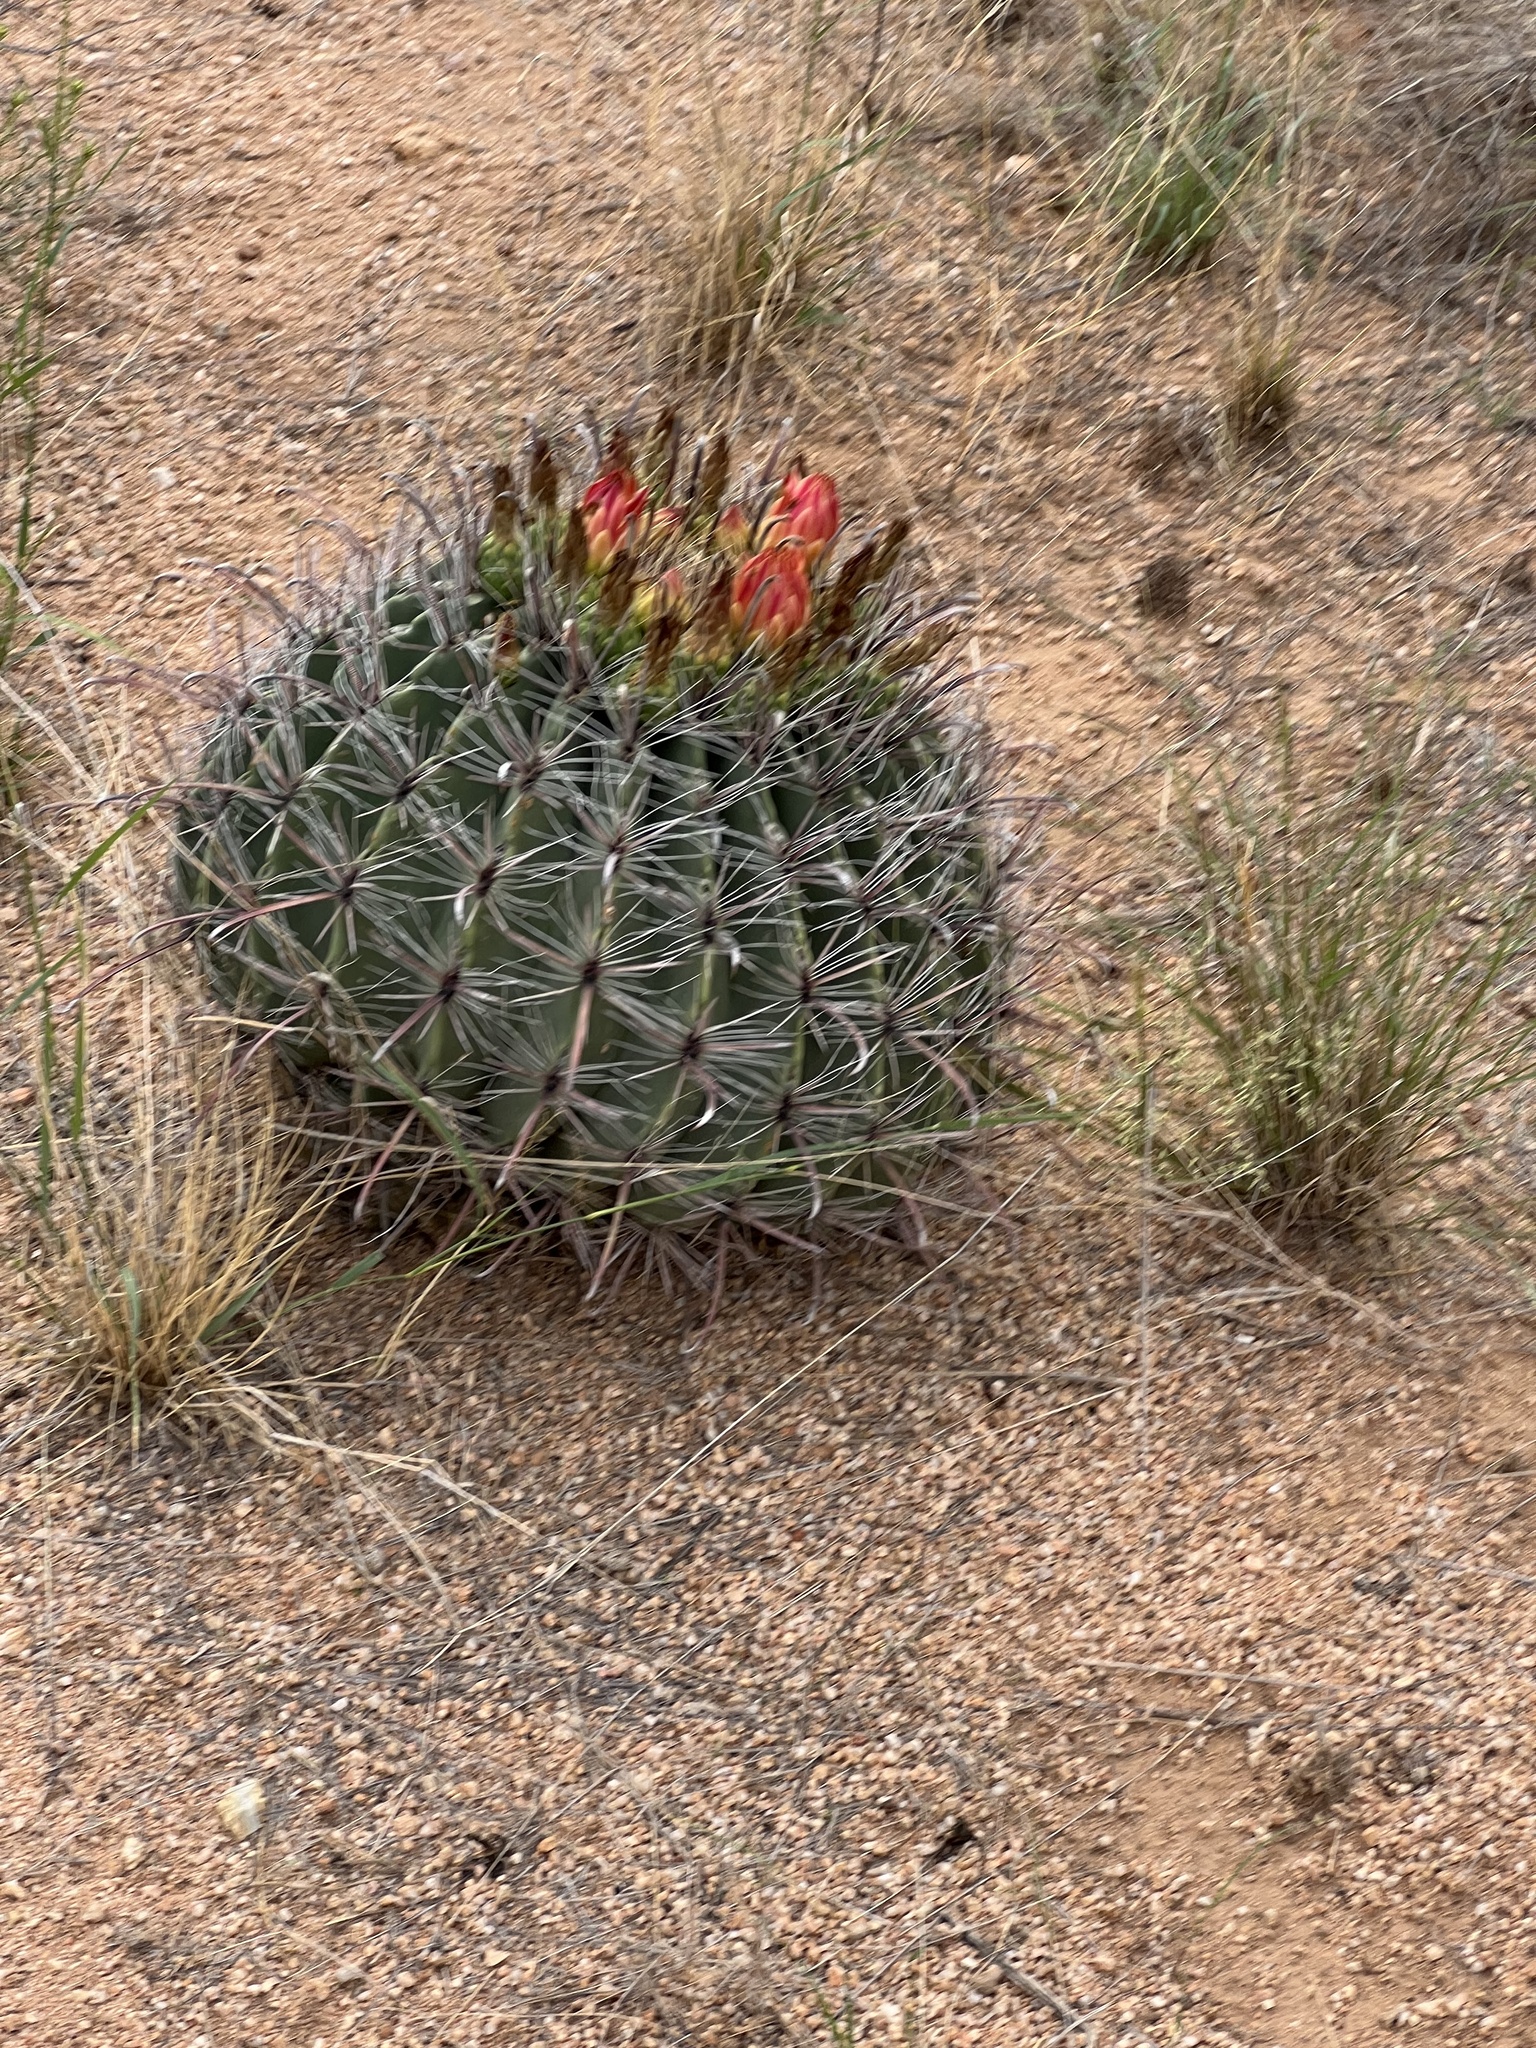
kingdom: Plantae
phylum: Tracheophyta
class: Magnoliopsida
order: Caryophyllales
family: Cactaceae
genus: Ferocactus
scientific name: Ferocactus wislizeni
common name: Candy barrel cactus
